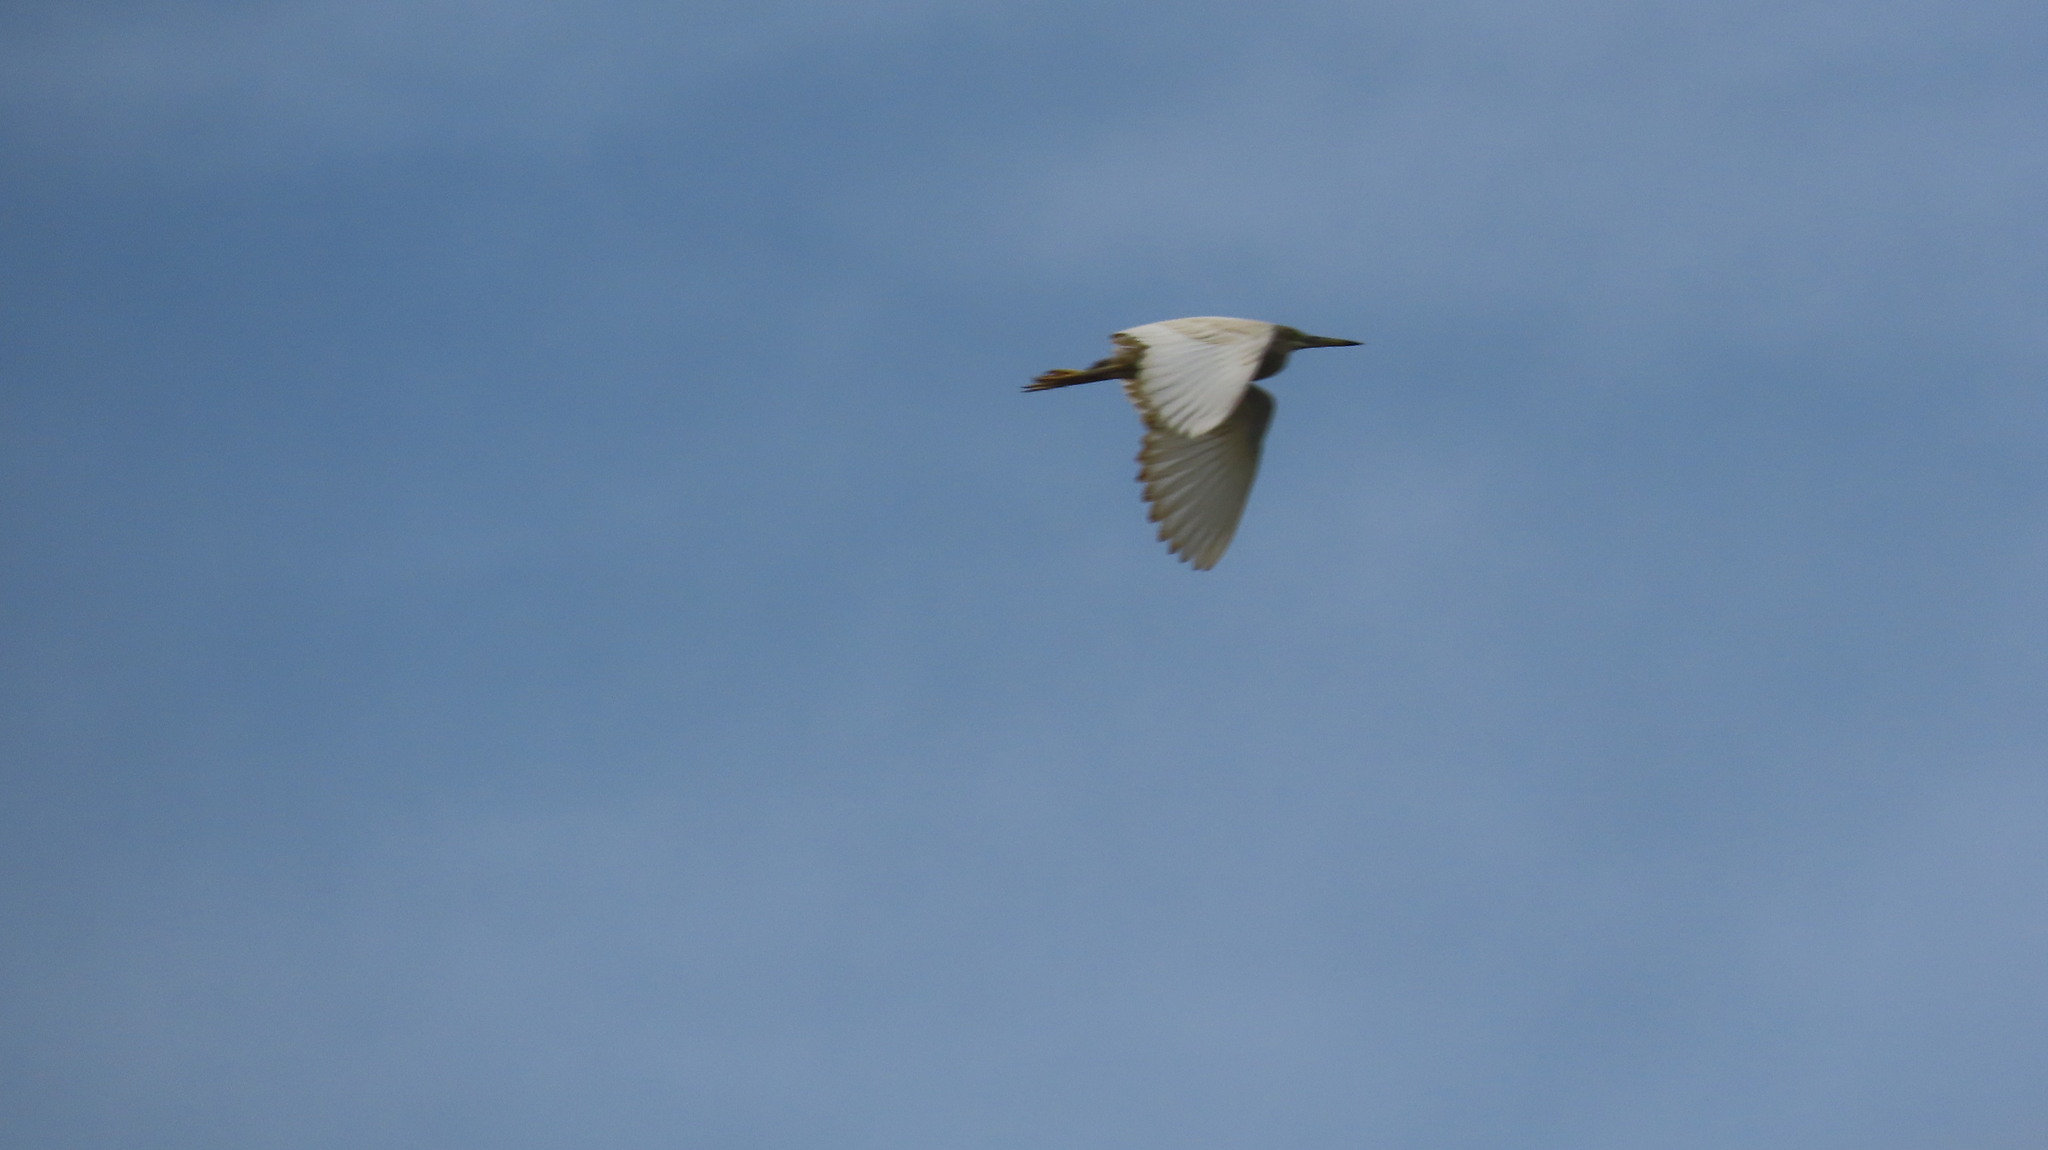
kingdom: Animalia
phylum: Chordata
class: Aves
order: Pelecaniformes
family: Ardeidae
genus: Ardeola
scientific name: Ardeola grayii
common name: Indian pond heron
